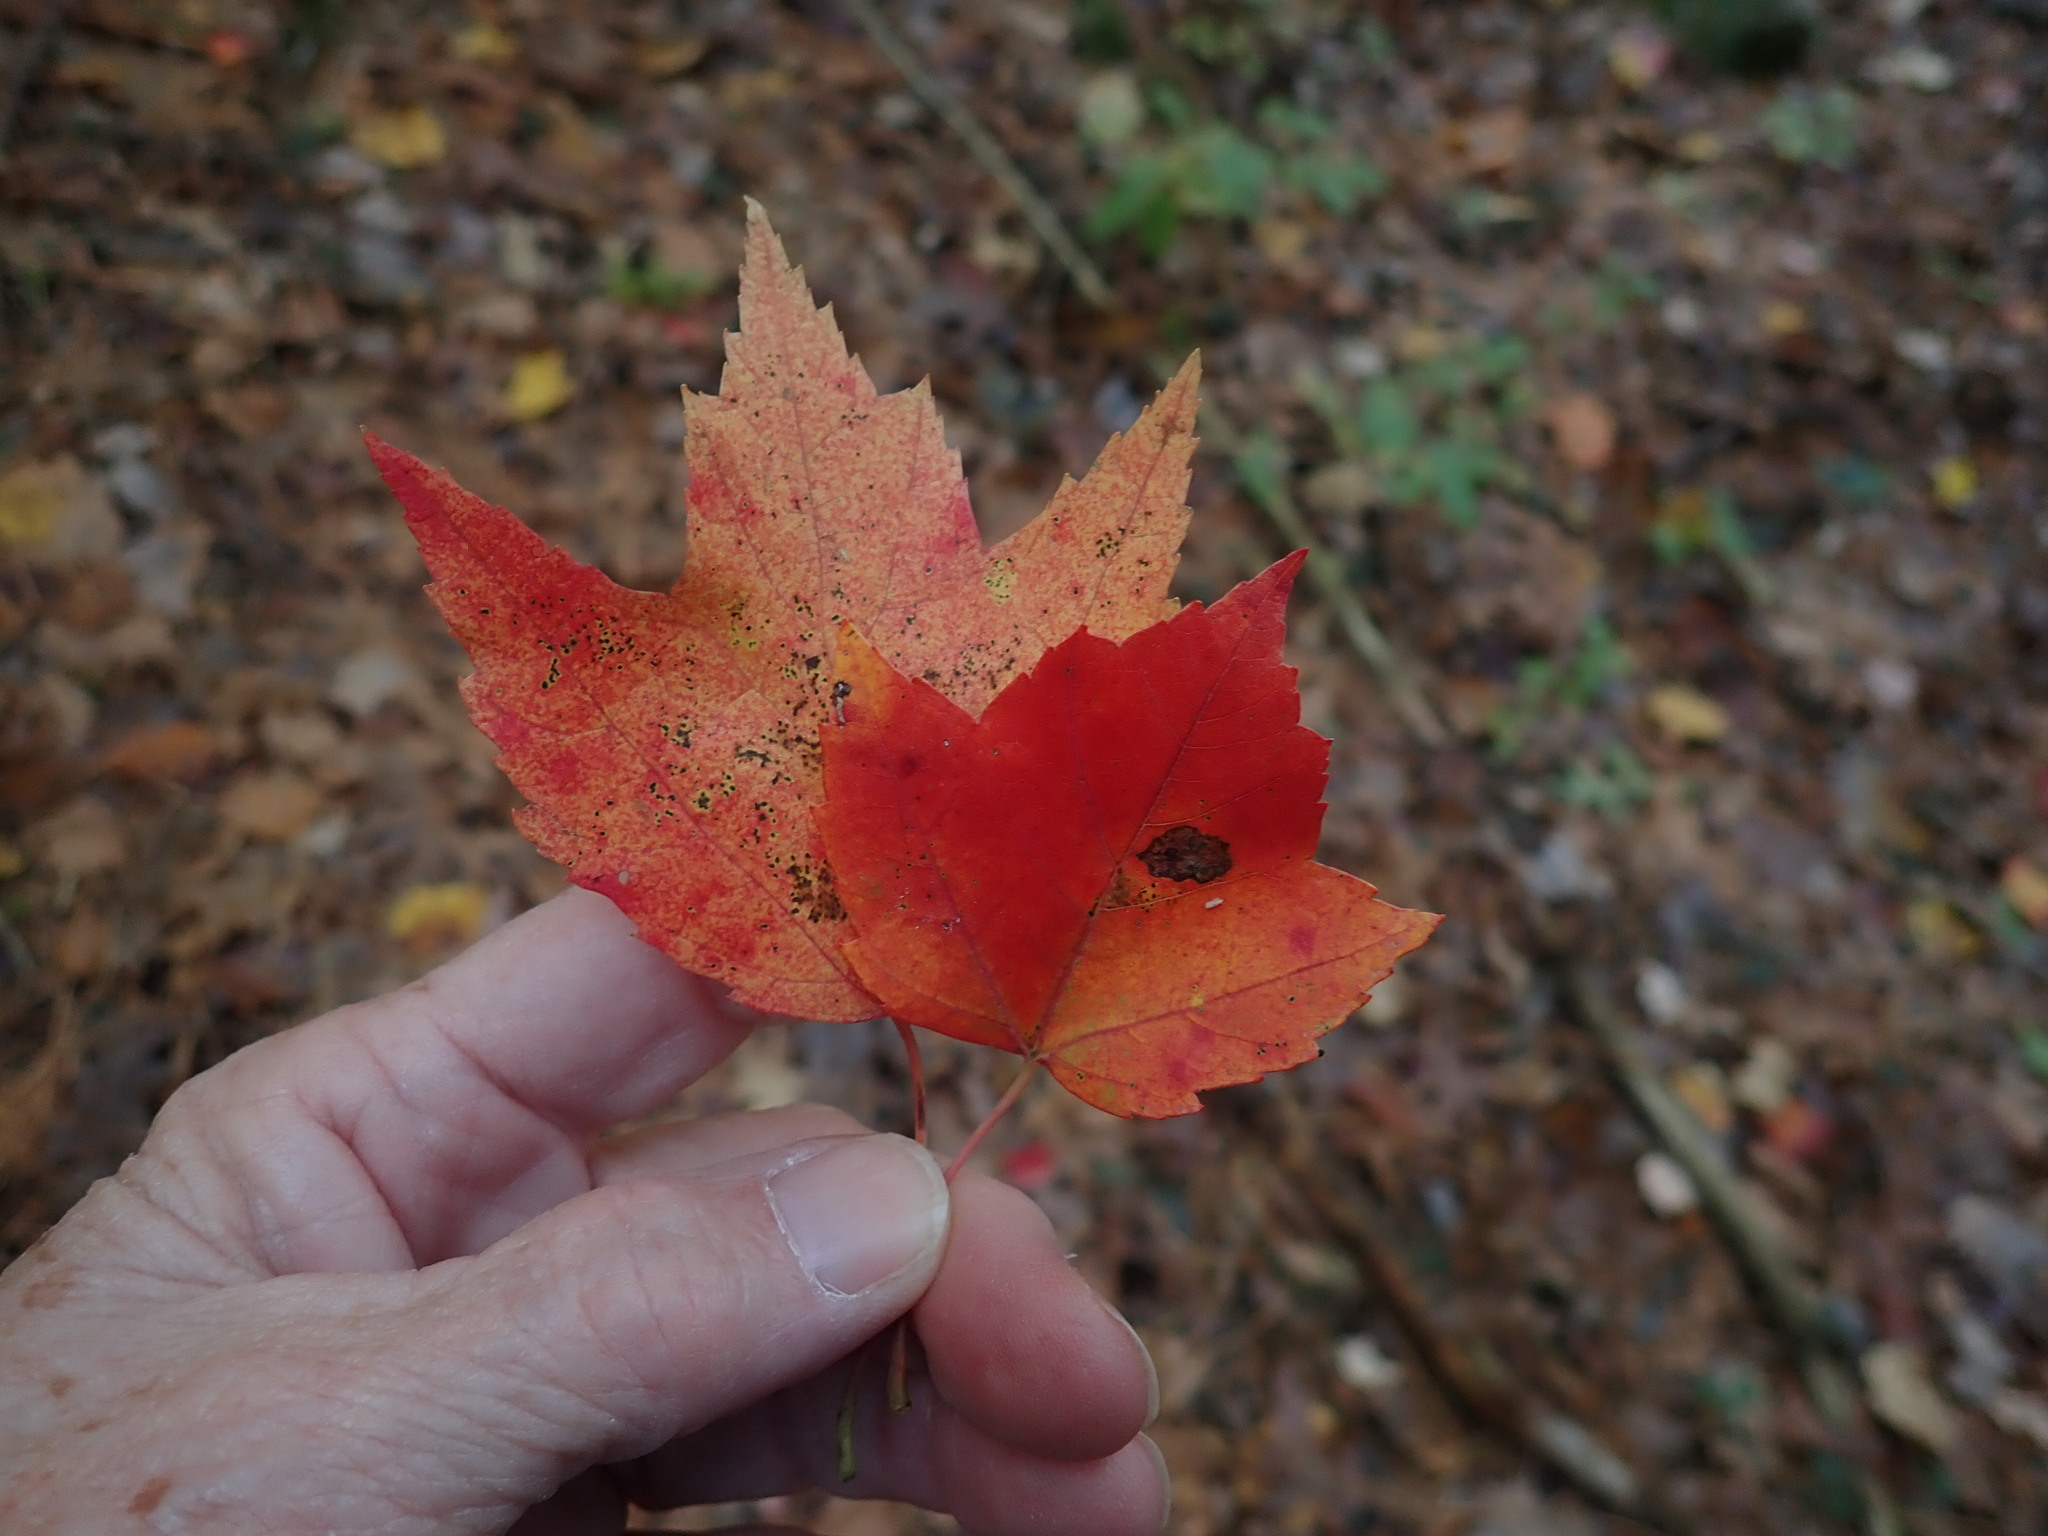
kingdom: Plantae
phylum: Tracheophyta
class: Magnoliopsida
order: Sapindales
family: Sapindaceae
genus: Acer
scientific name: Acer rubrum
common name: Red maple
